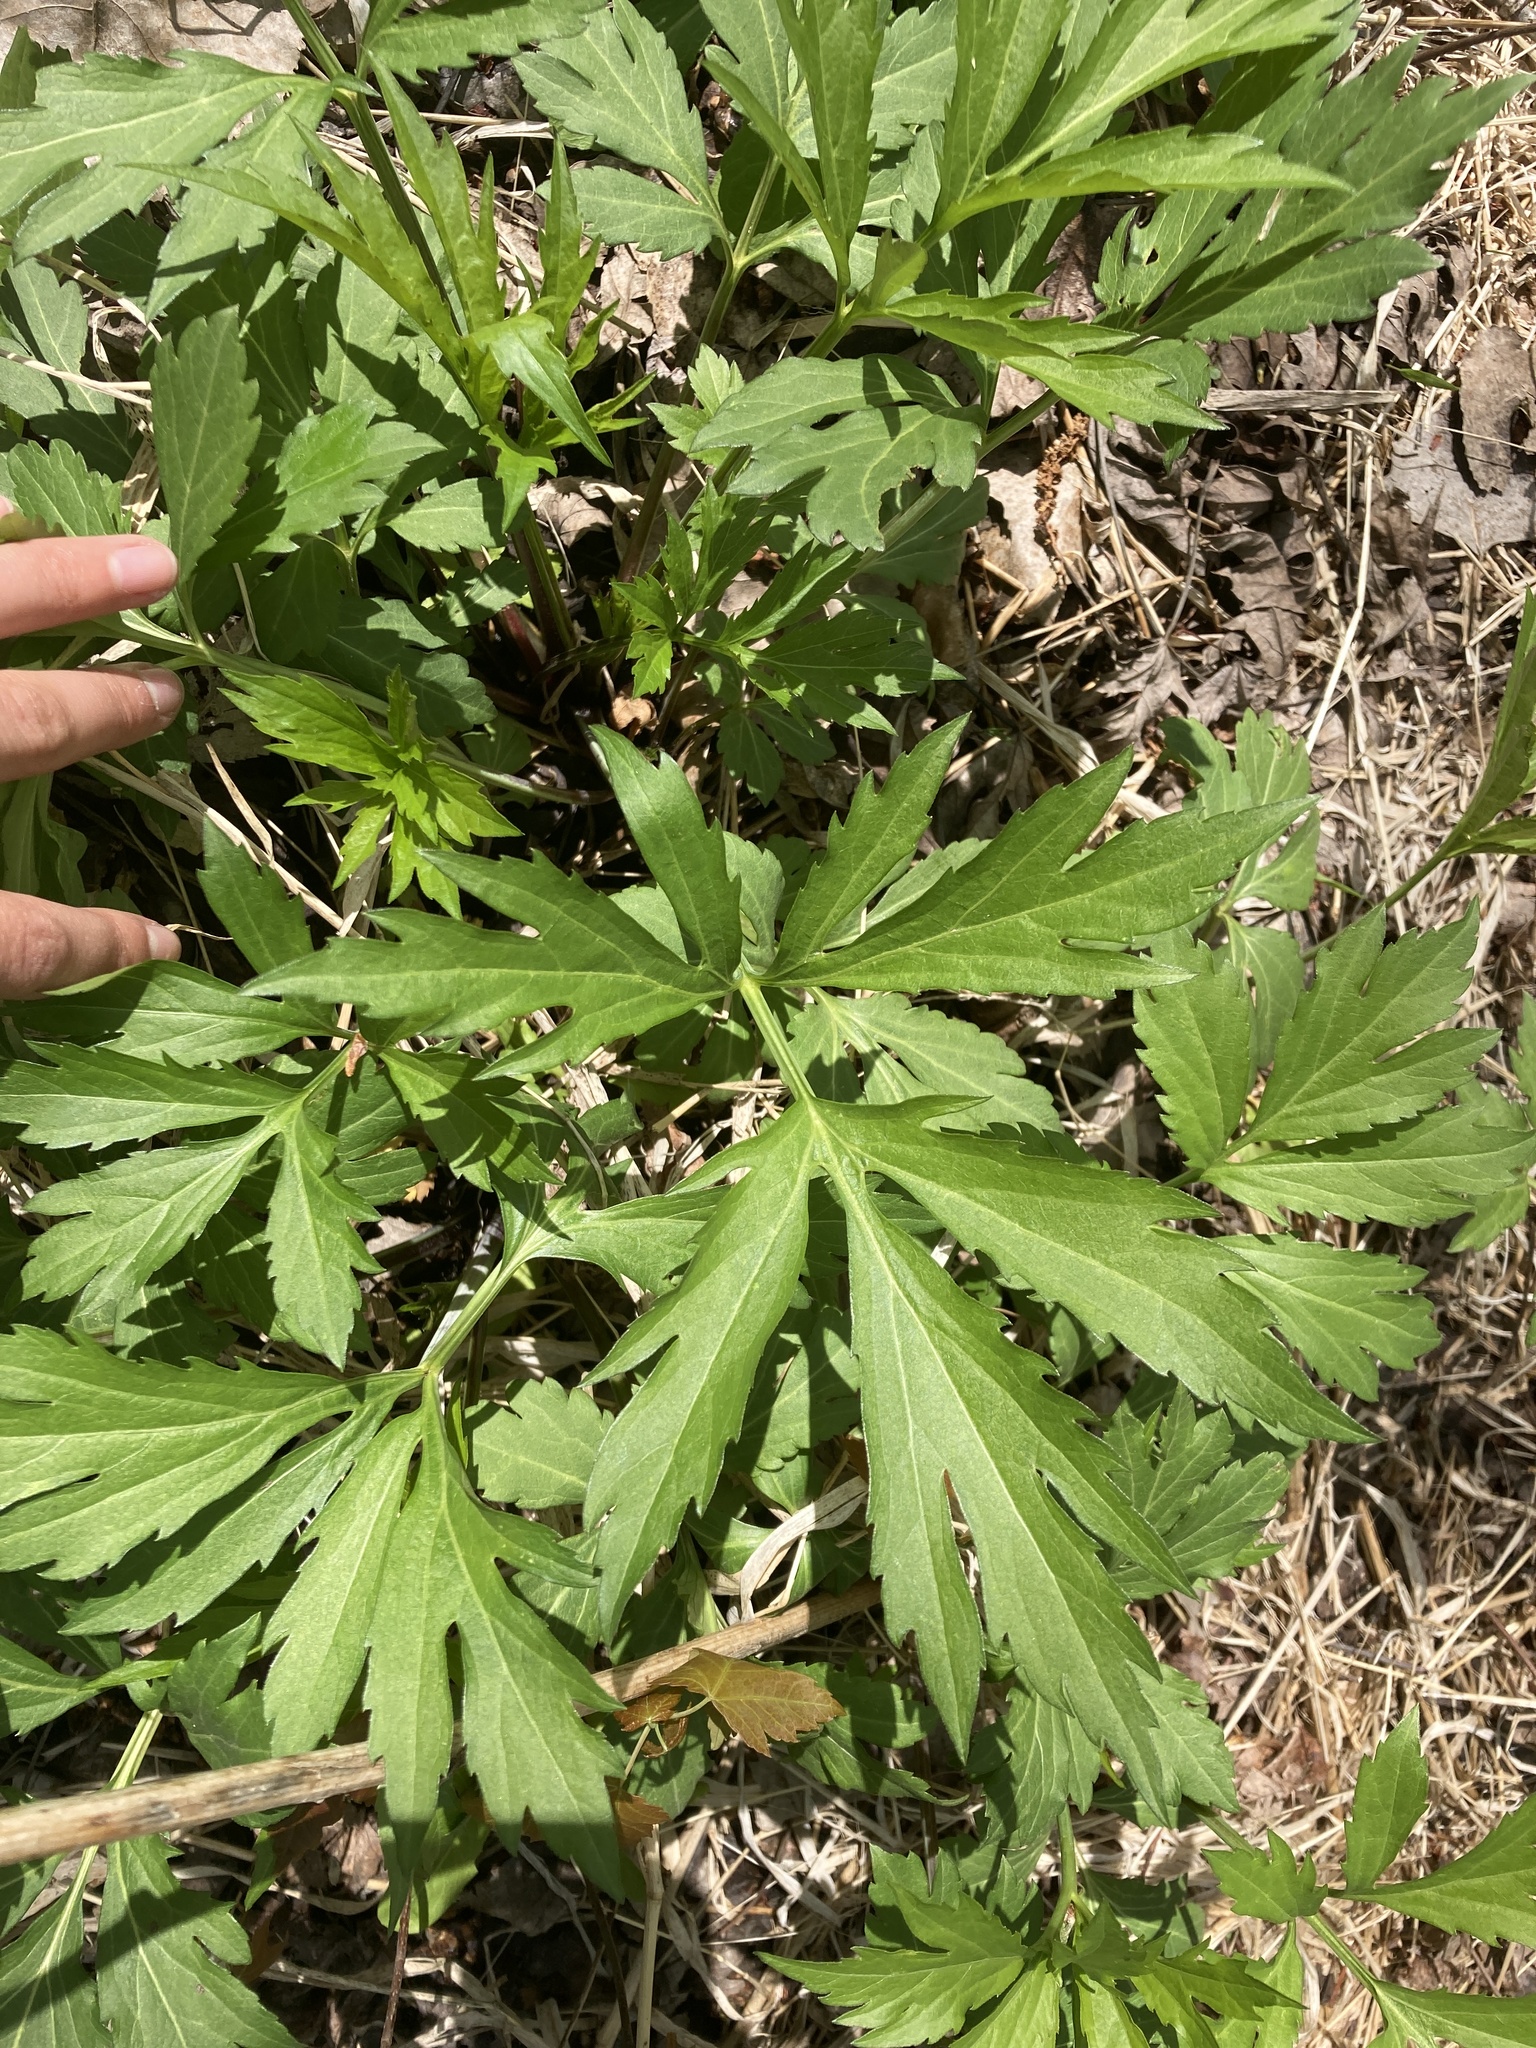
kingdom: Plantae
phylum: Tracheophyta
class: Magnoliopsida
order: Asterales
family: Asteraceae
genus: Rudbeckia
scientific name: Rudbeckia laciniata
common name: Coneflower
